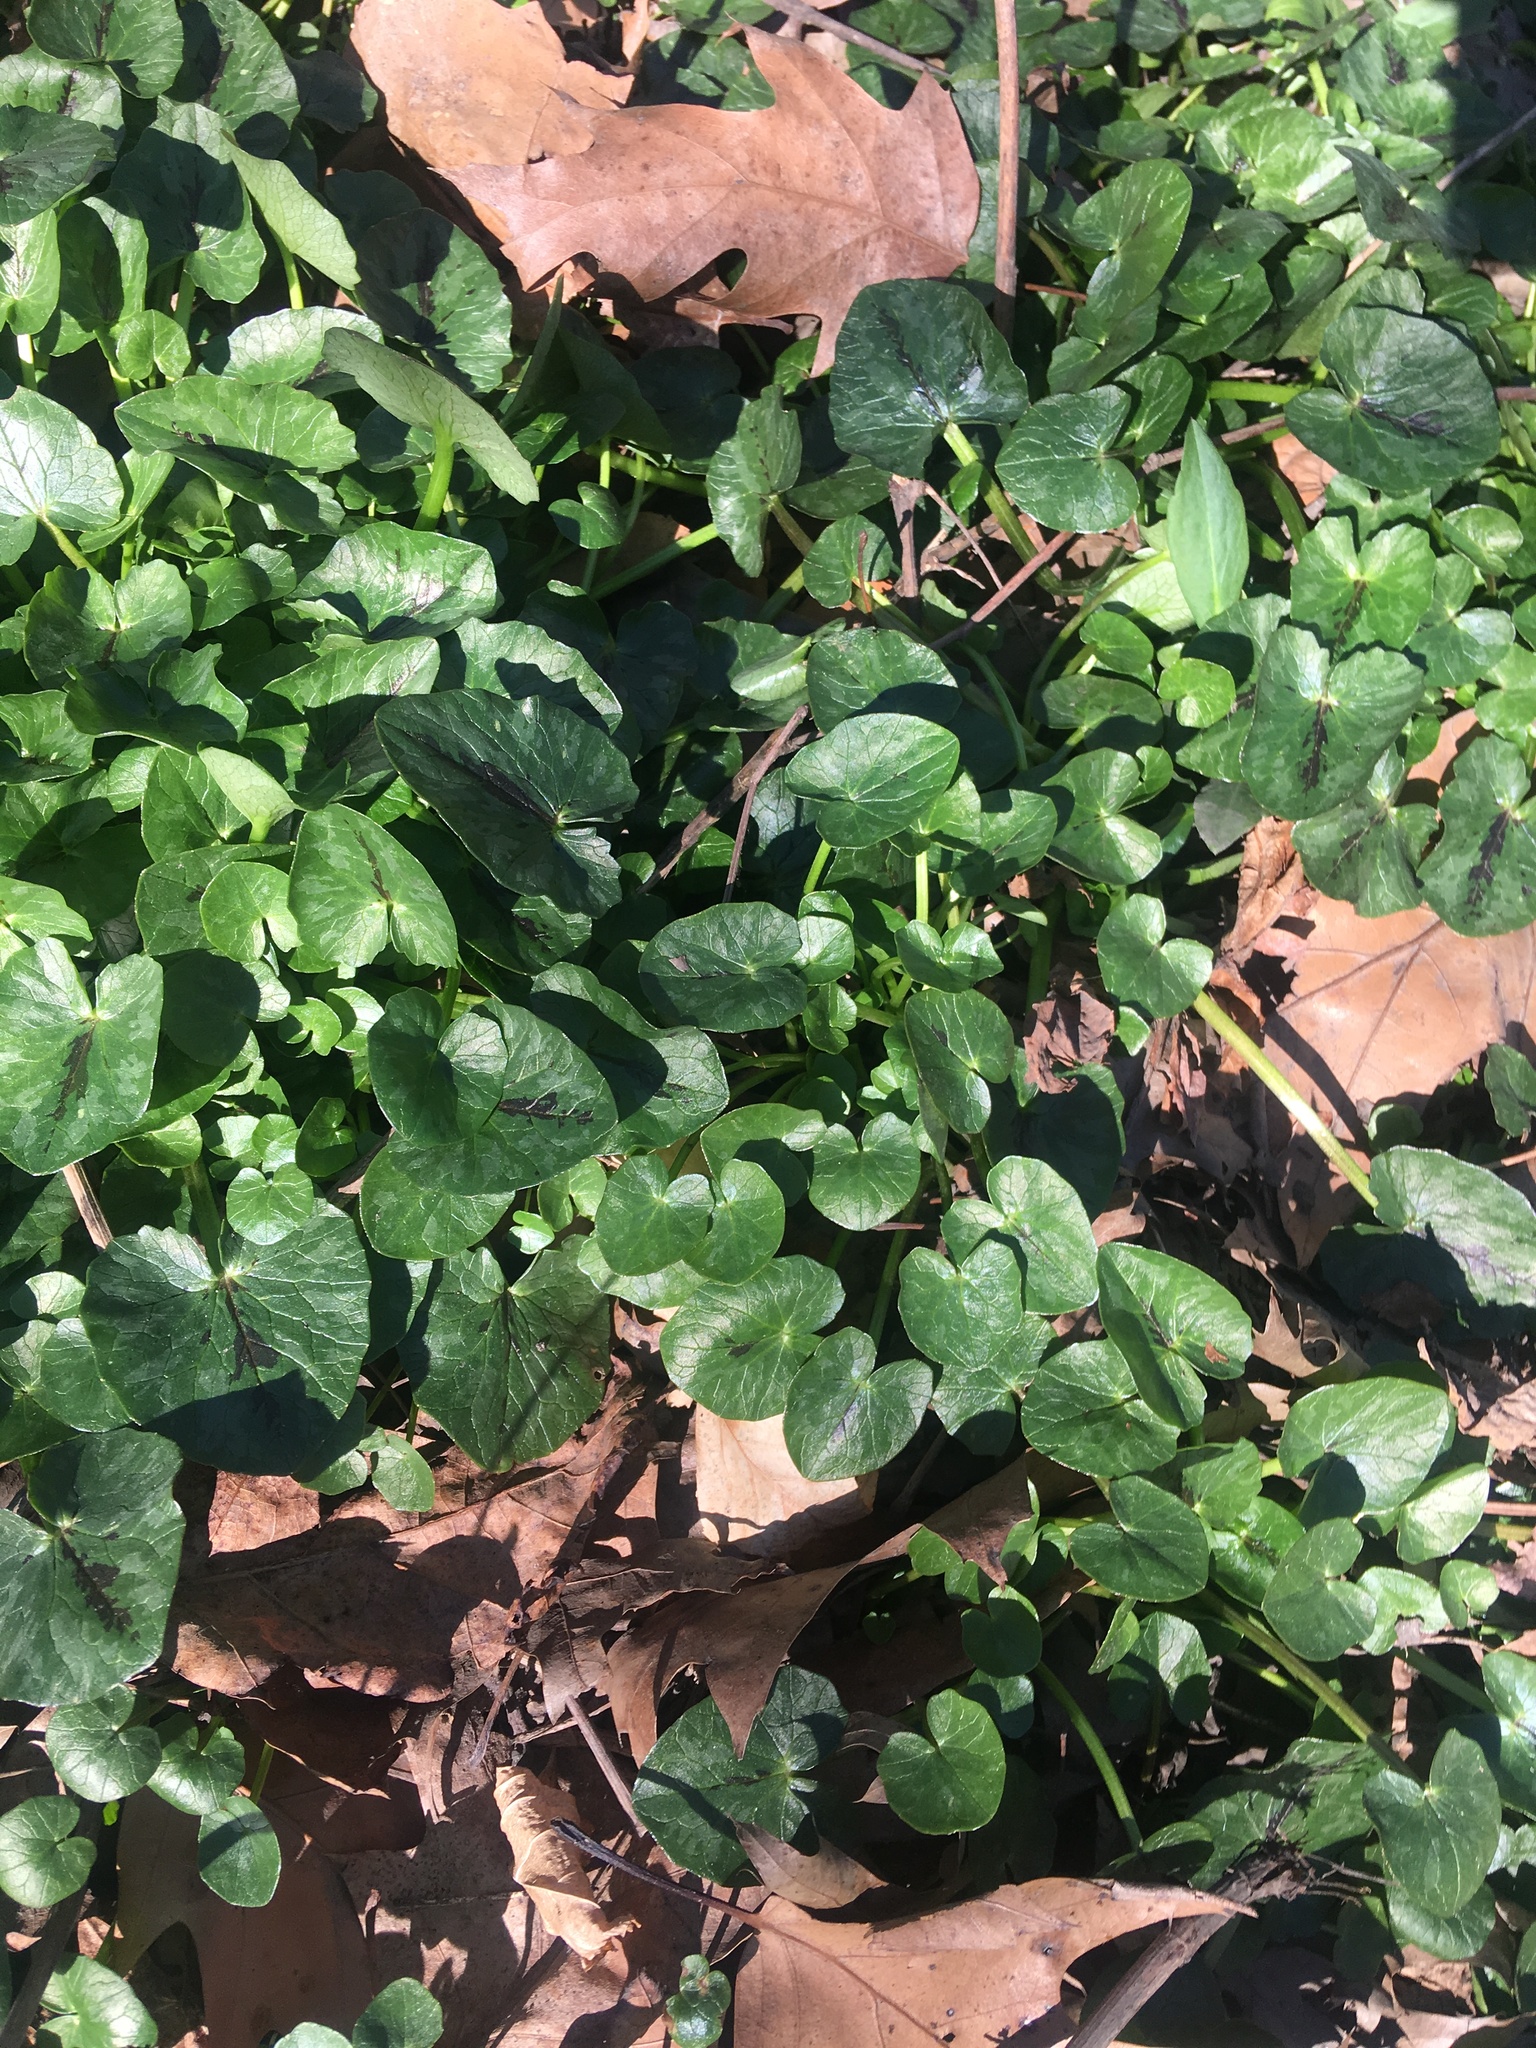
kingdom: Plantae
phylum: Tracheophyta
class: Magnoliopsida
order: Ranunculales
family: Ranunculaceae
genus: Ficaria
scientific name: Ficaria verna
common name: Lesser celandine
